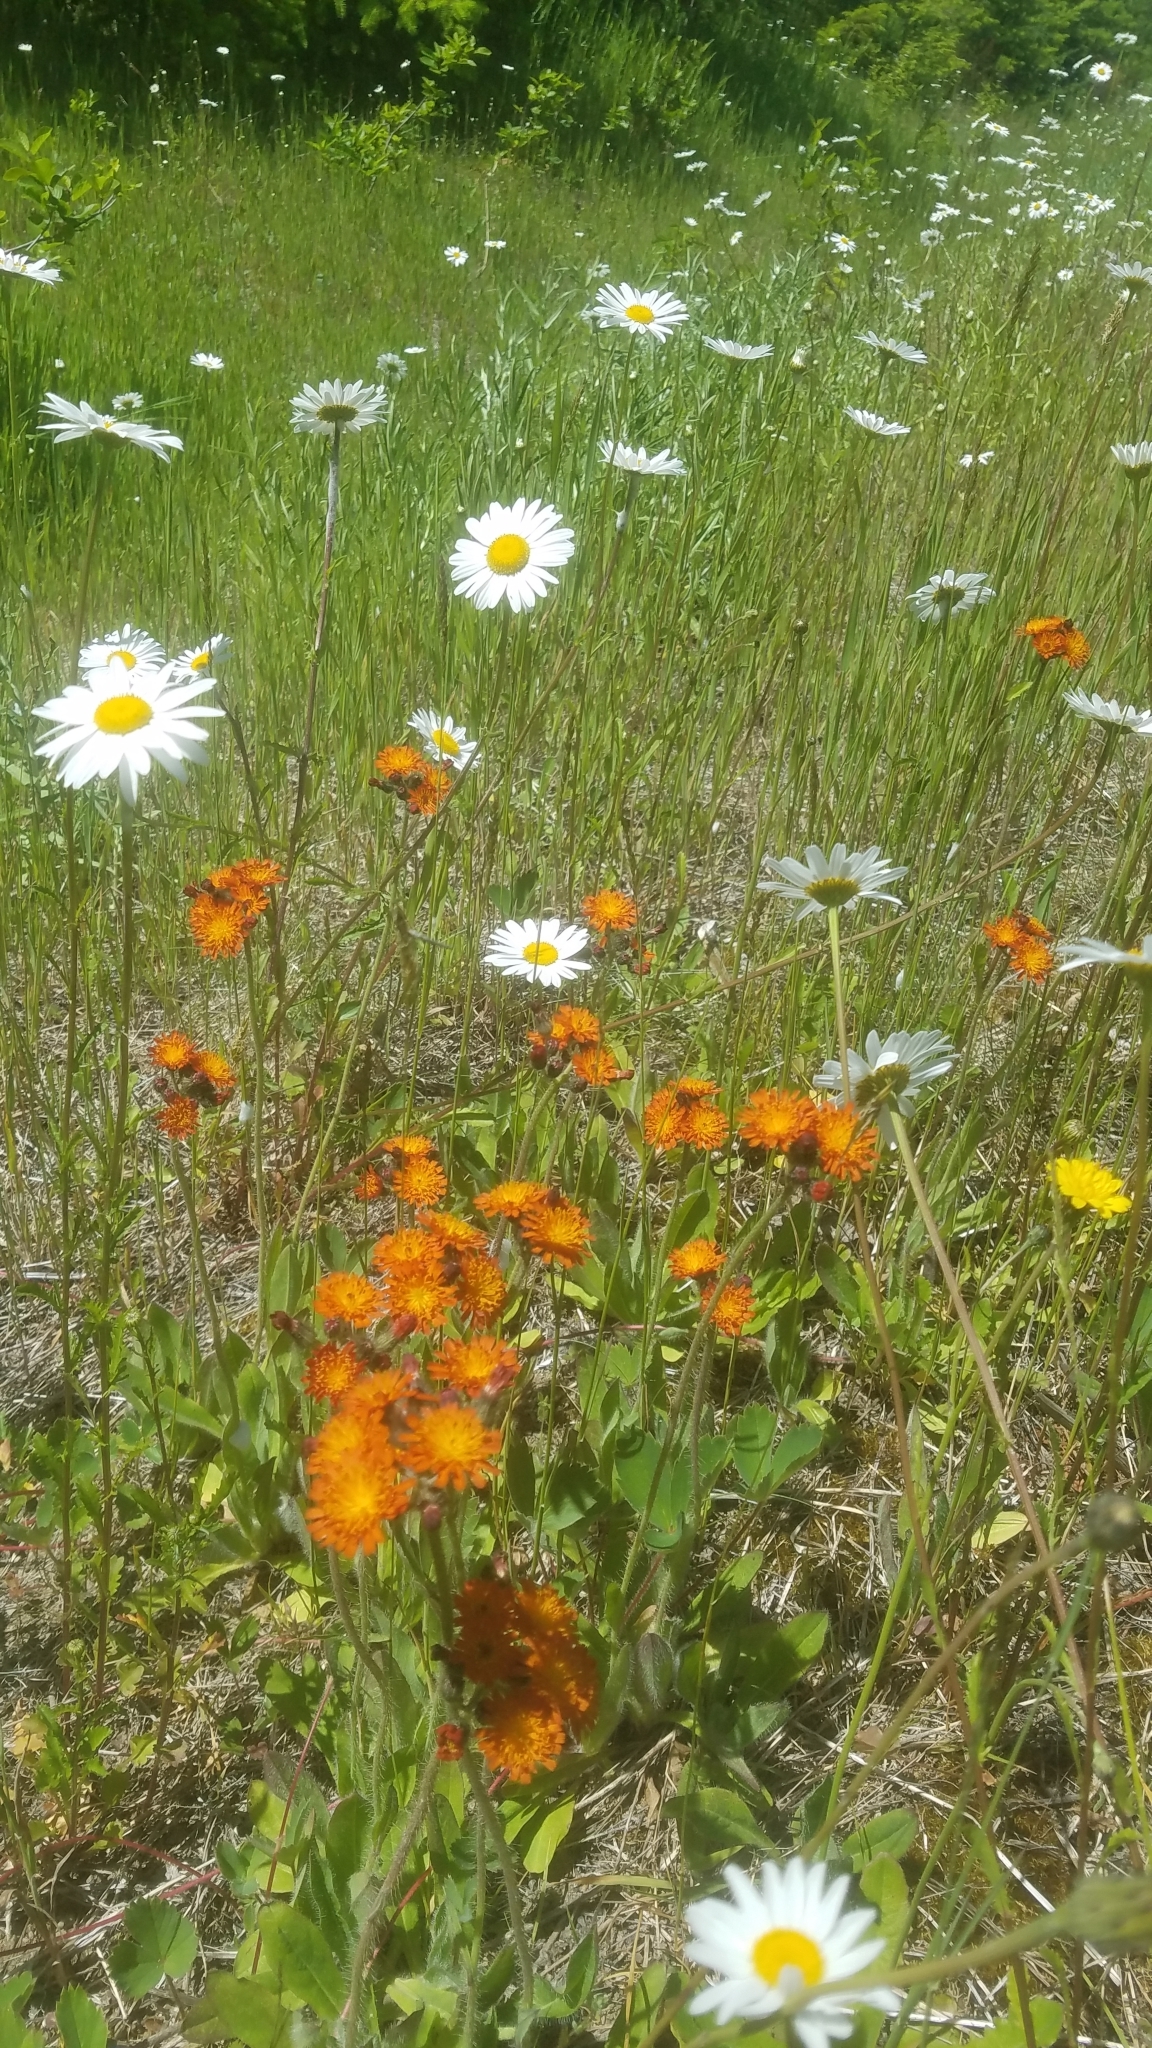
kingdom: Plantae
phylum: Tracheophyta
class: Magnoliopsida
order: Asterales
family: Asteraceae
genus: Pilosella
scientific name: Pilosella aurantiaca
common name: Fox-and-cubs
